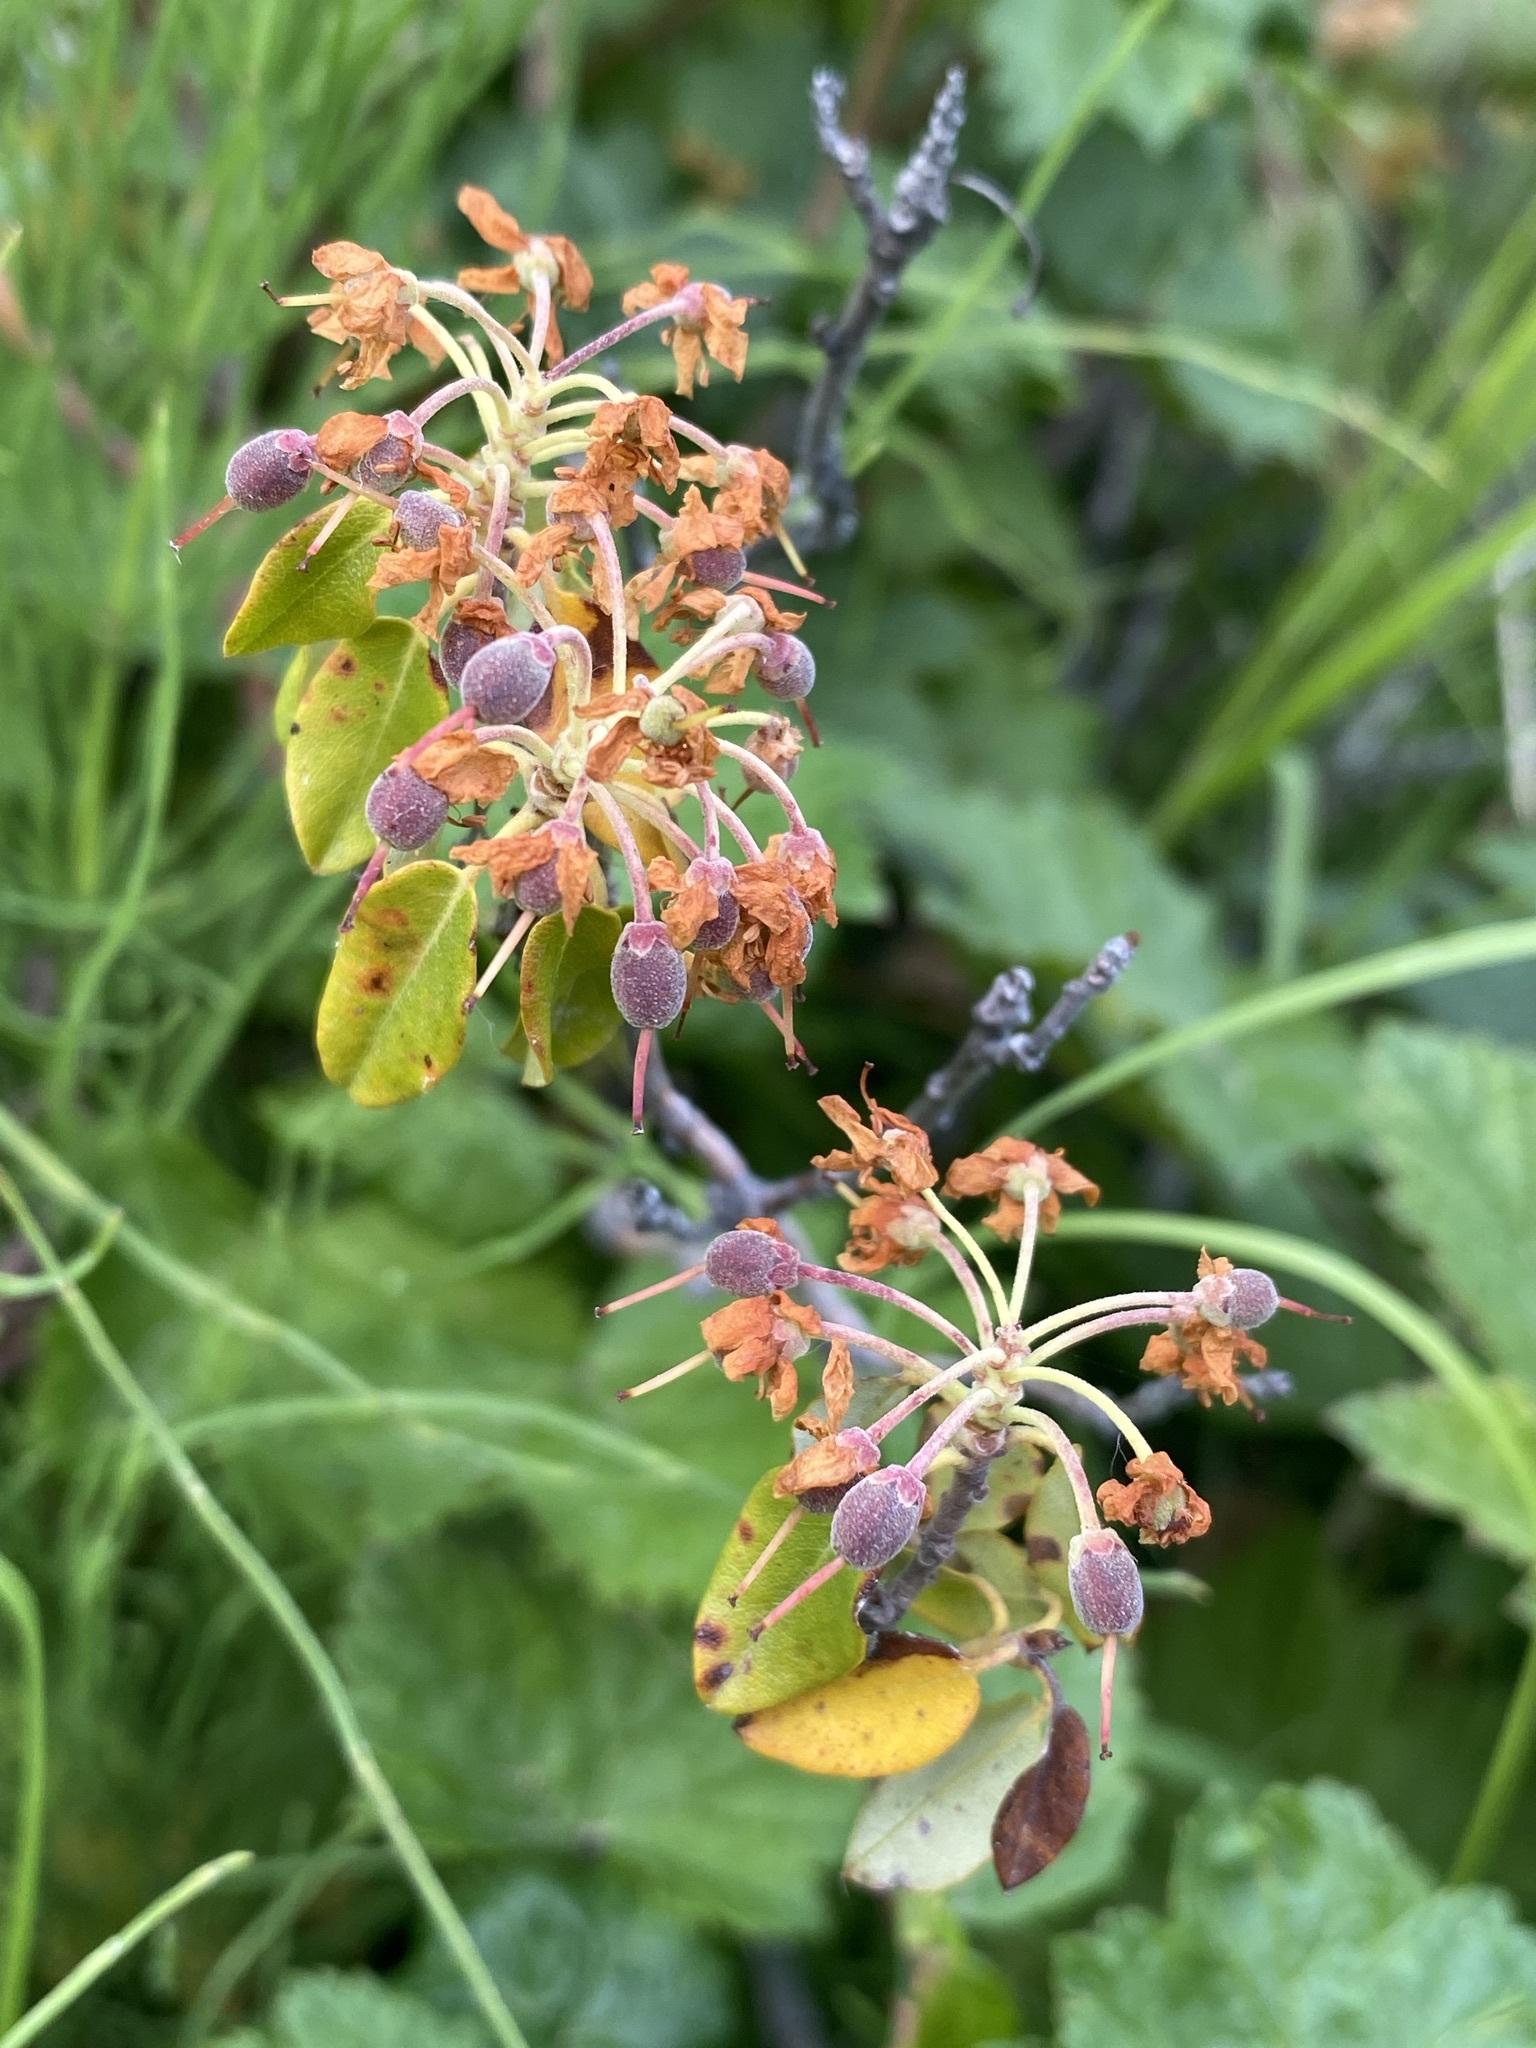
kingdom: Plantae
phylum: Tracheophyta
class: Magnoliopsida
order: Ericales
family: Ericaceae
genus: Rhododendron
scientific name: Rhododendron columbianum
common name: Western labrador tea
